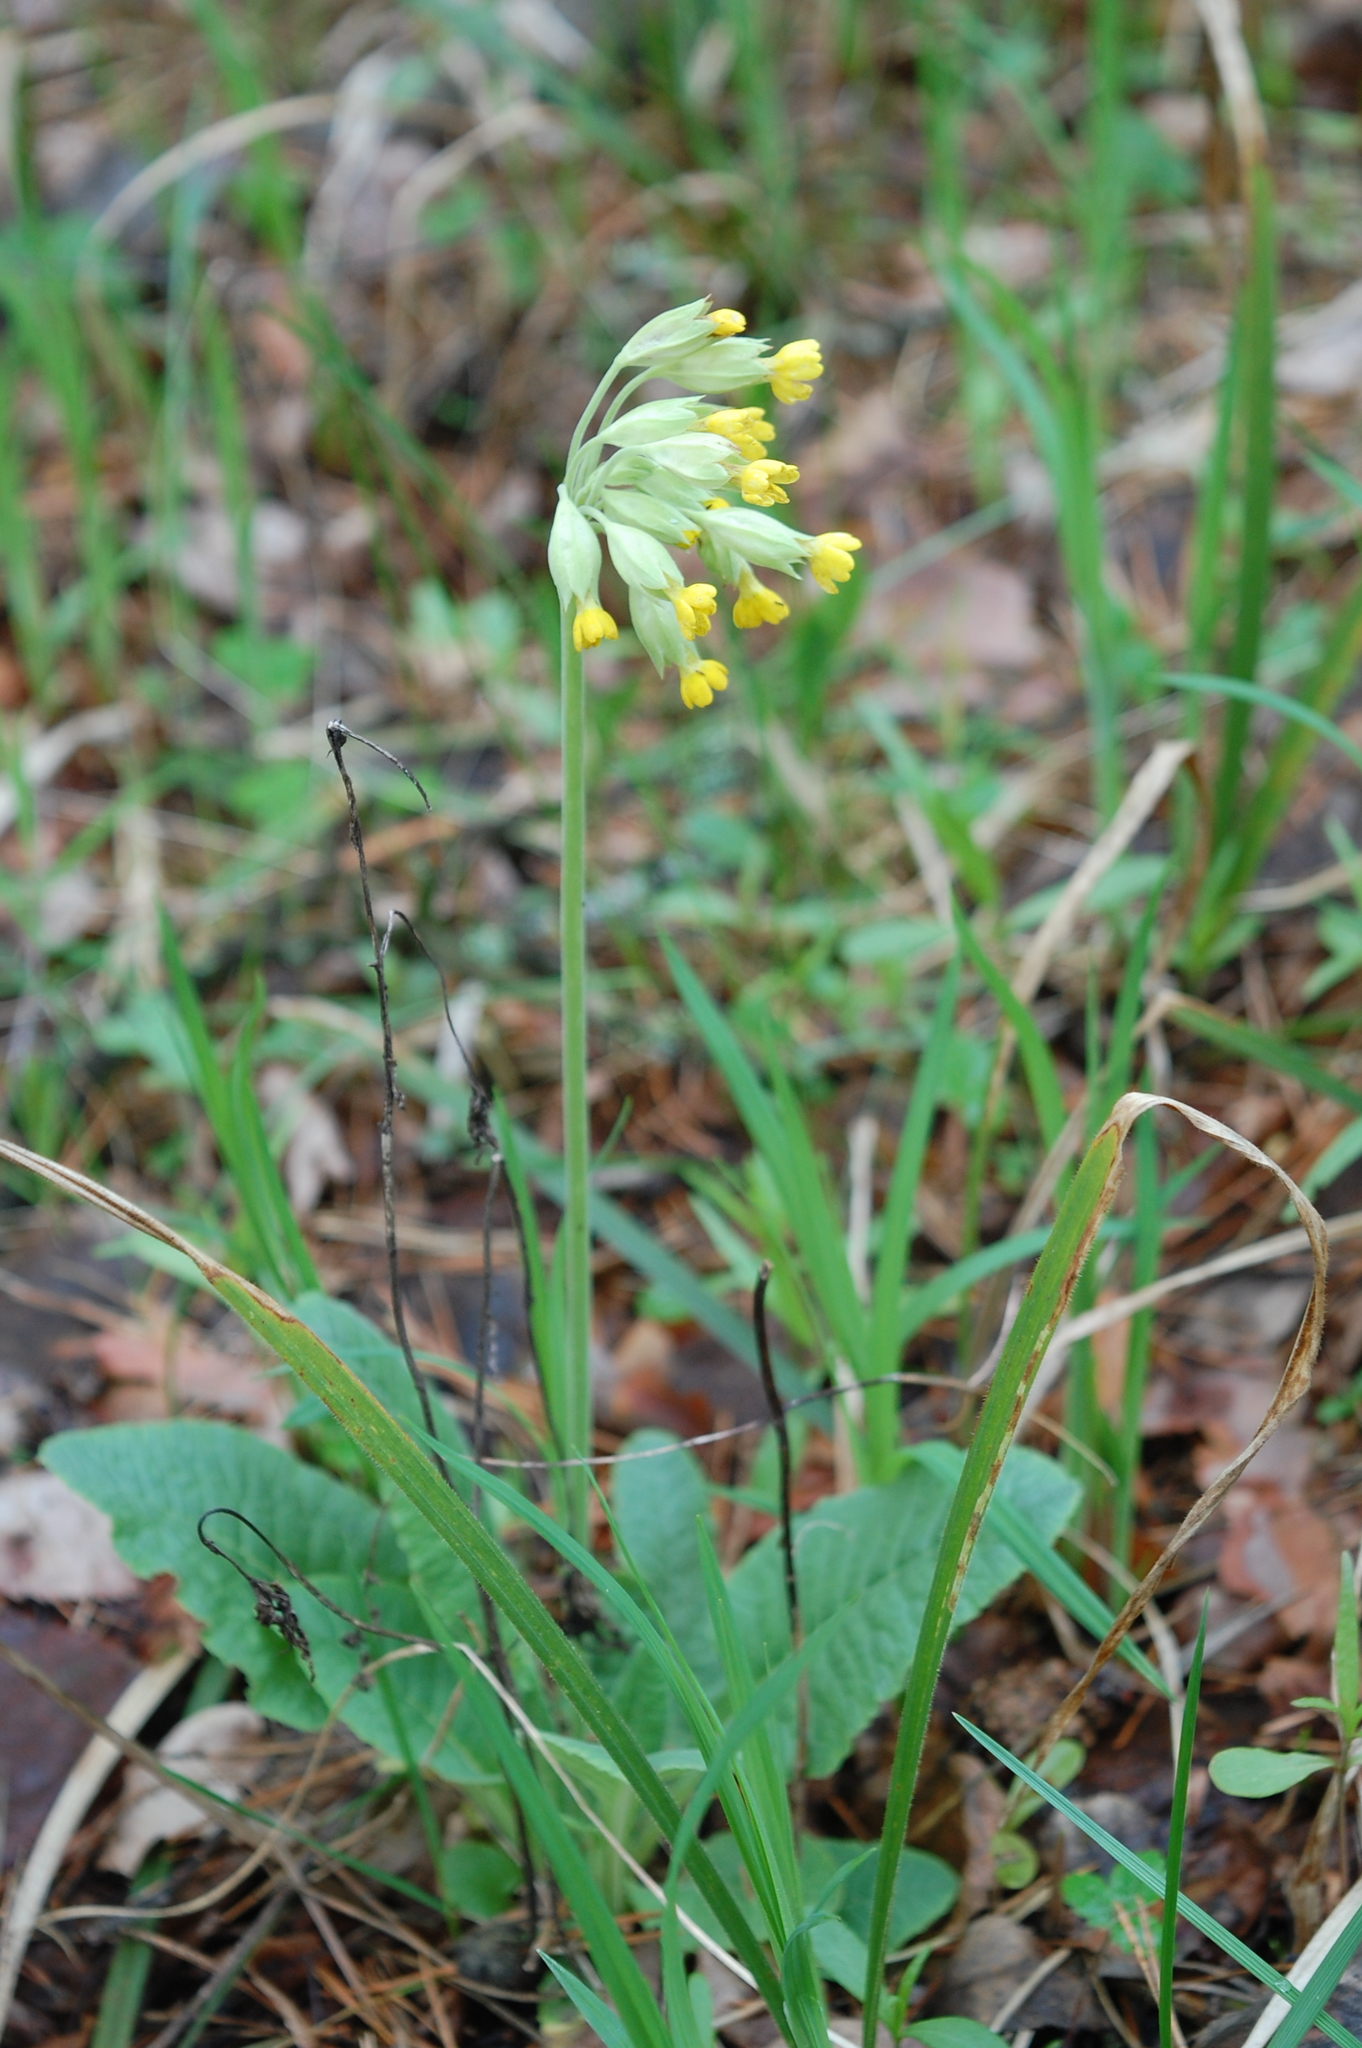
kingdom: Plantae
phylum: Tracheophyta
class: Magnoliopsida
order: Ericales
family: Primulaceae
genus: Primula
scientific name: Primula veris
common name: Cowslip
